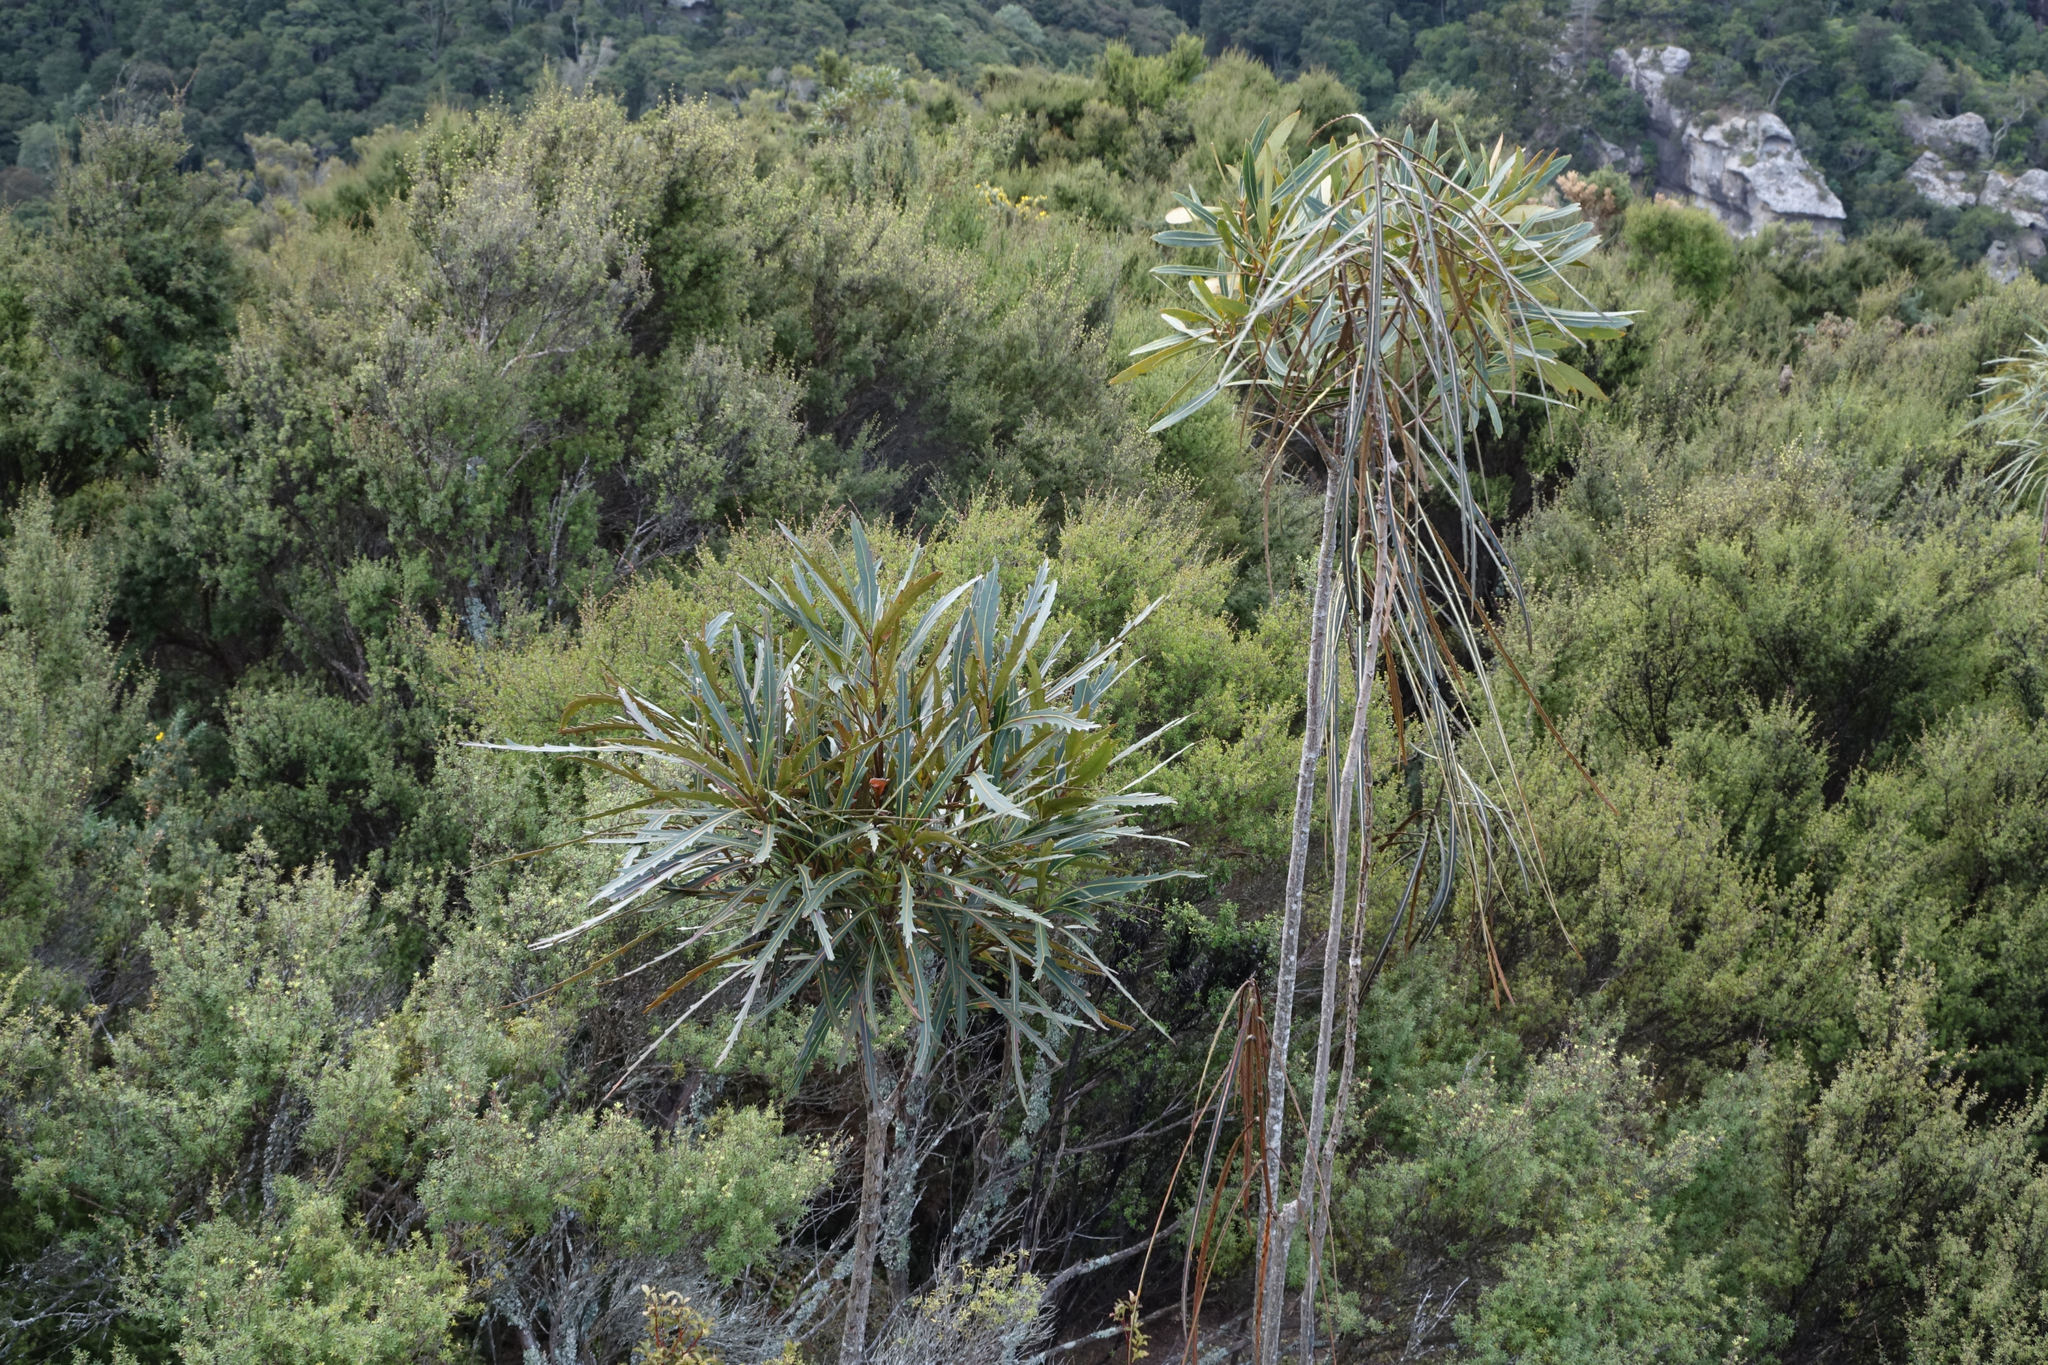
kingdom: Plantae
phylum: Tracheophyta
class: Magnoliopsida
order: Apiales
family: Araliaceae
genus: Pseudopanax
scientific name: Pseudopanax crassifolius
